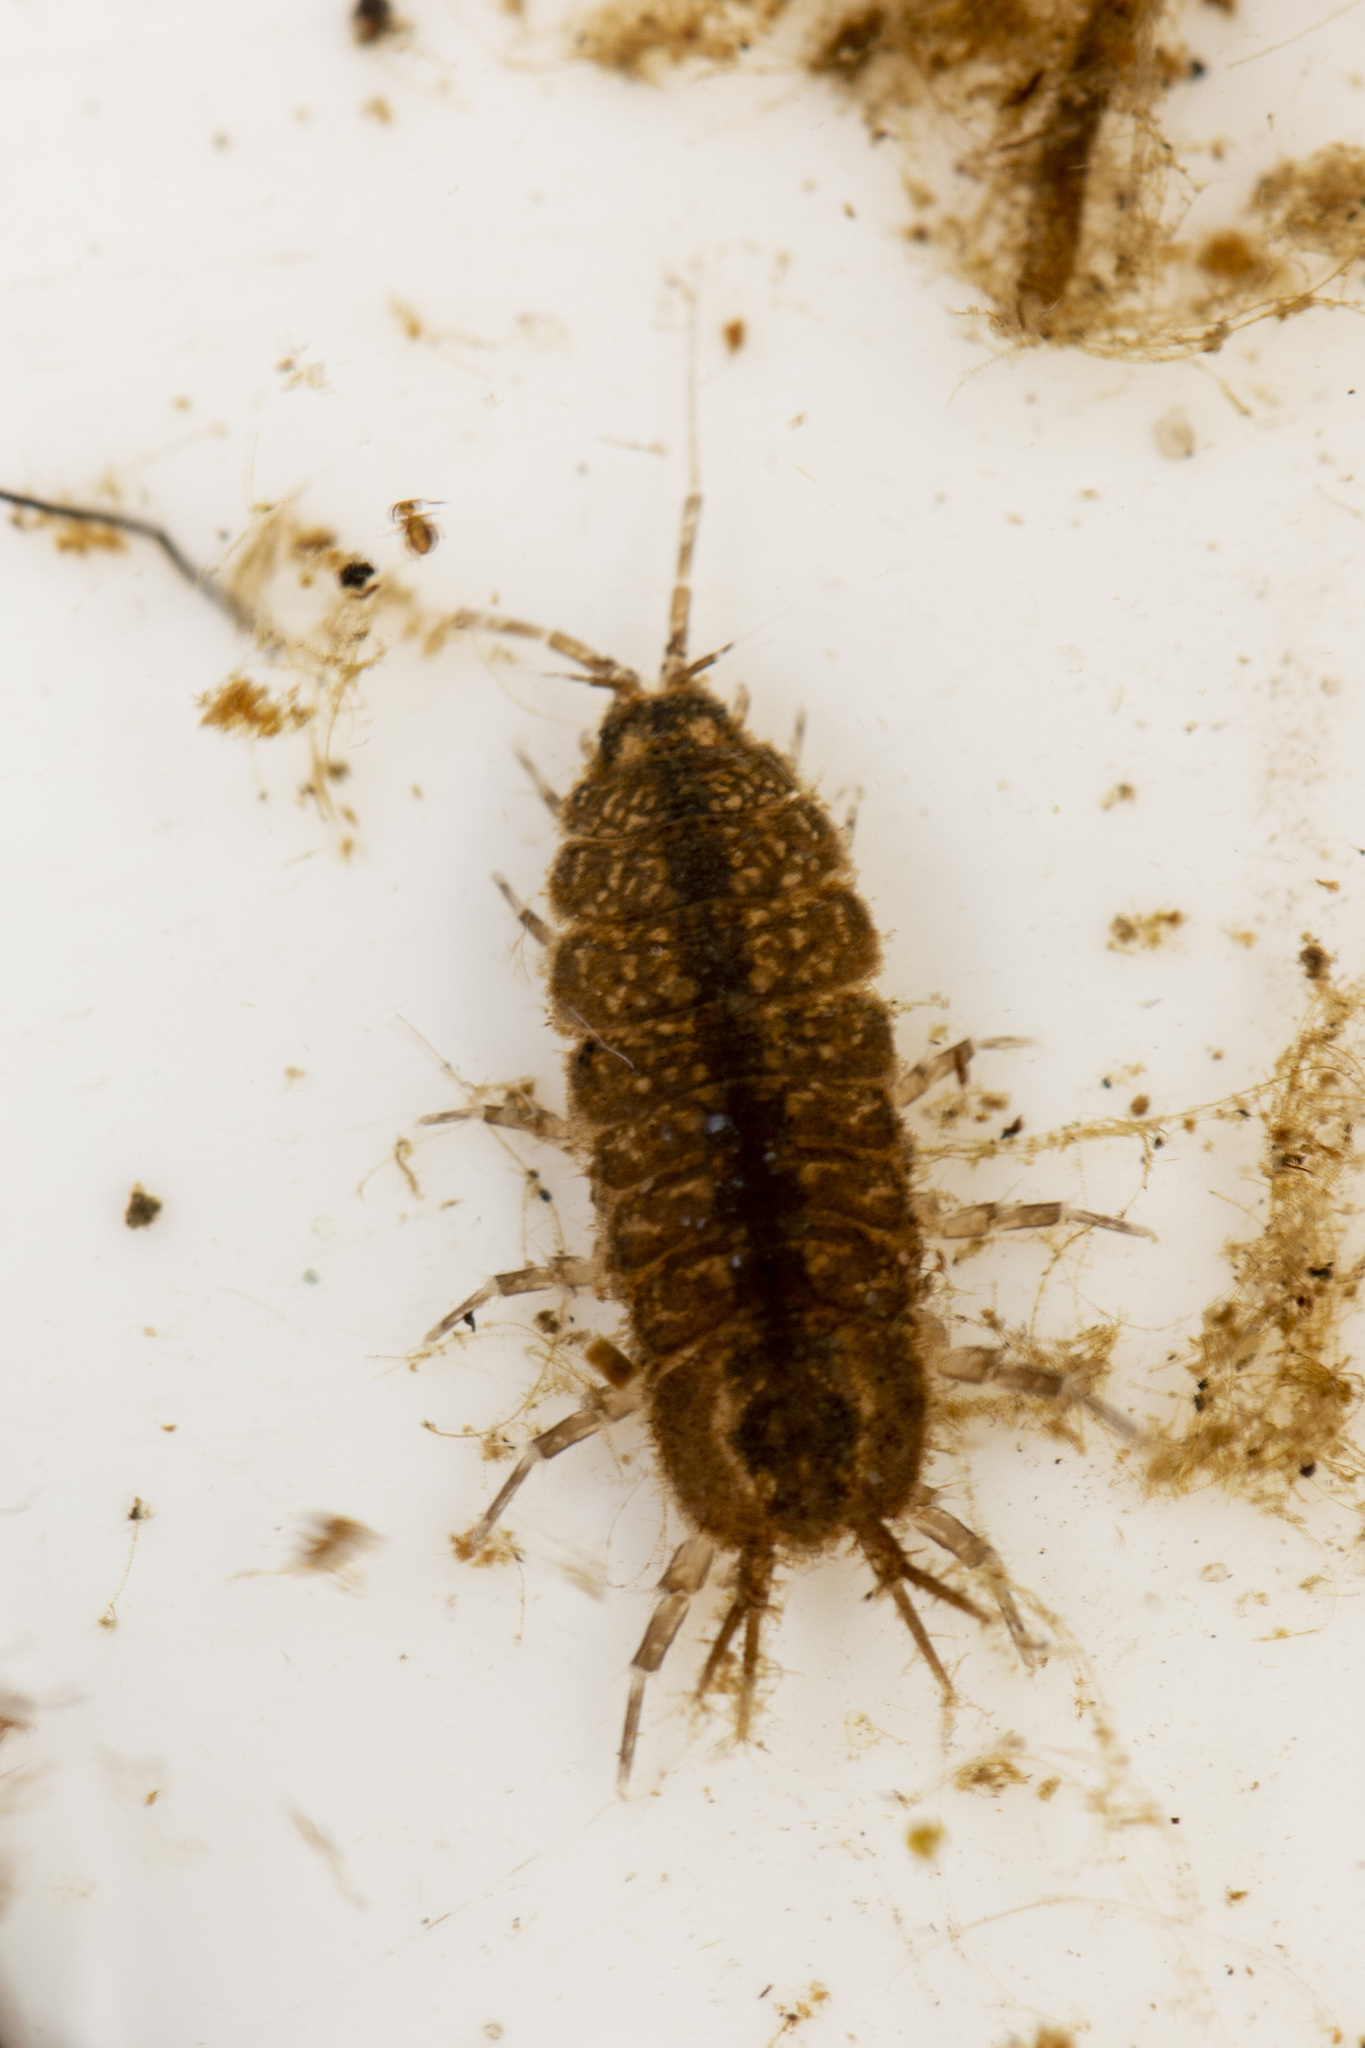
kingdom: Animalia
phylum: Arthropoda
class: Malacostraca
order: Isopoda
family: Asellidae
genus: Asellus
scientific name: Asellus aquaticus
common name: Water hog lice/slaters
